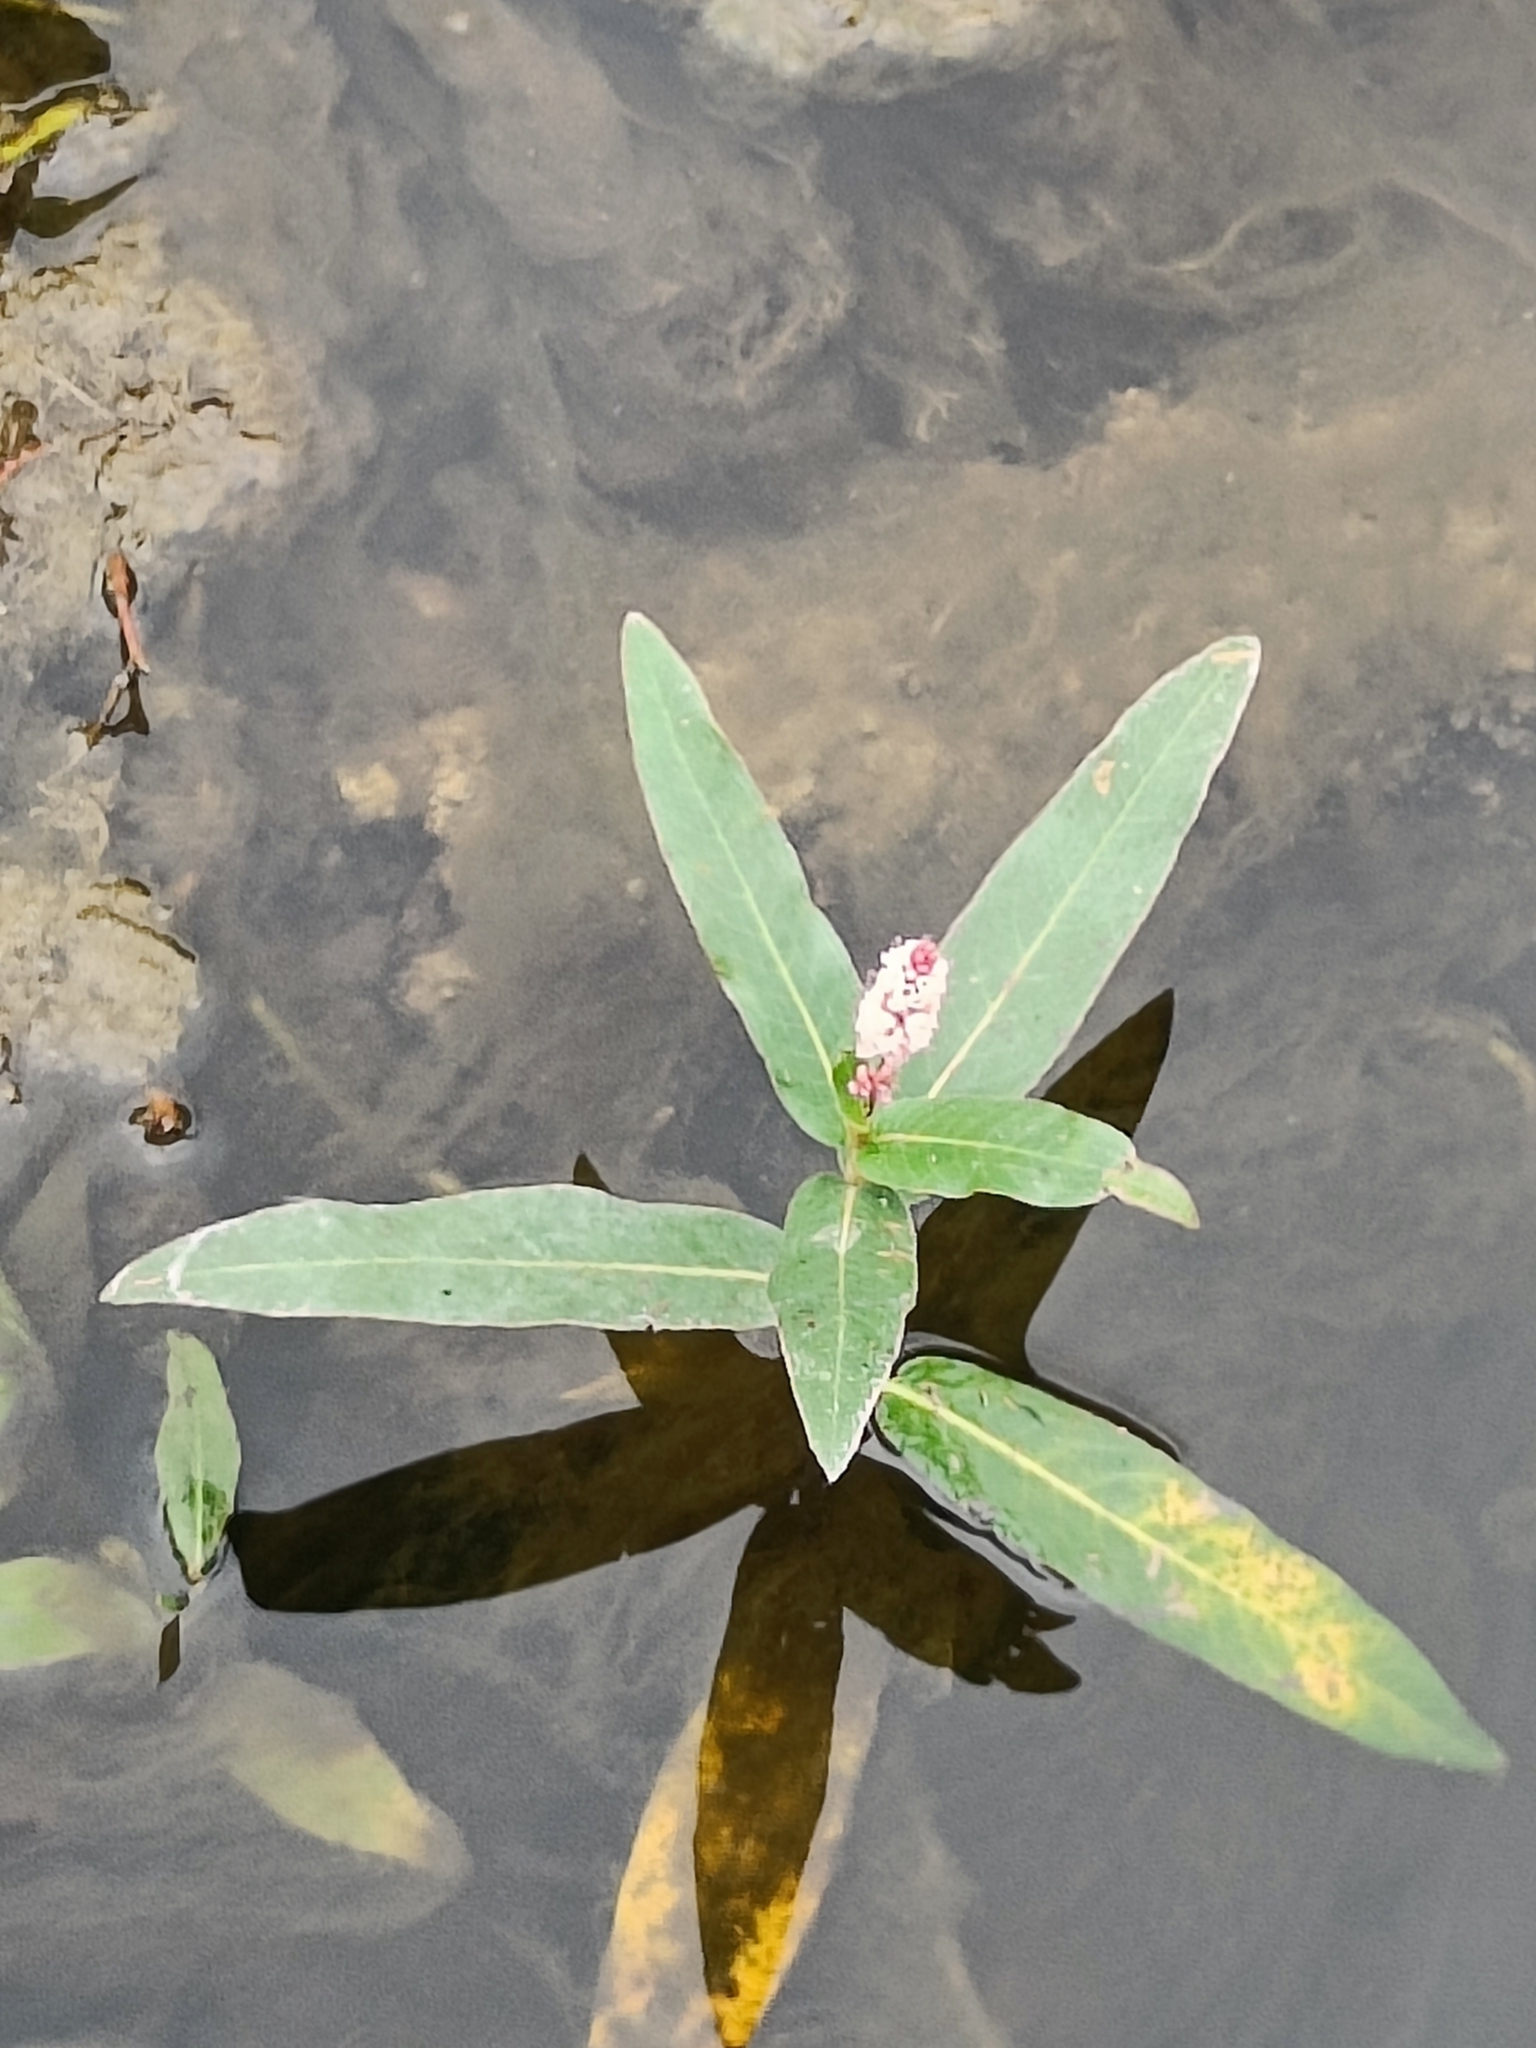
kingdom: Plantae
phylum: Tracheophyta
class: Magnoliopsida
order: Caryophyllales
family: Polygonaceae
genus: Persicaria
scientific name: Persicaria amphibia
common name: Amphibious bistort
